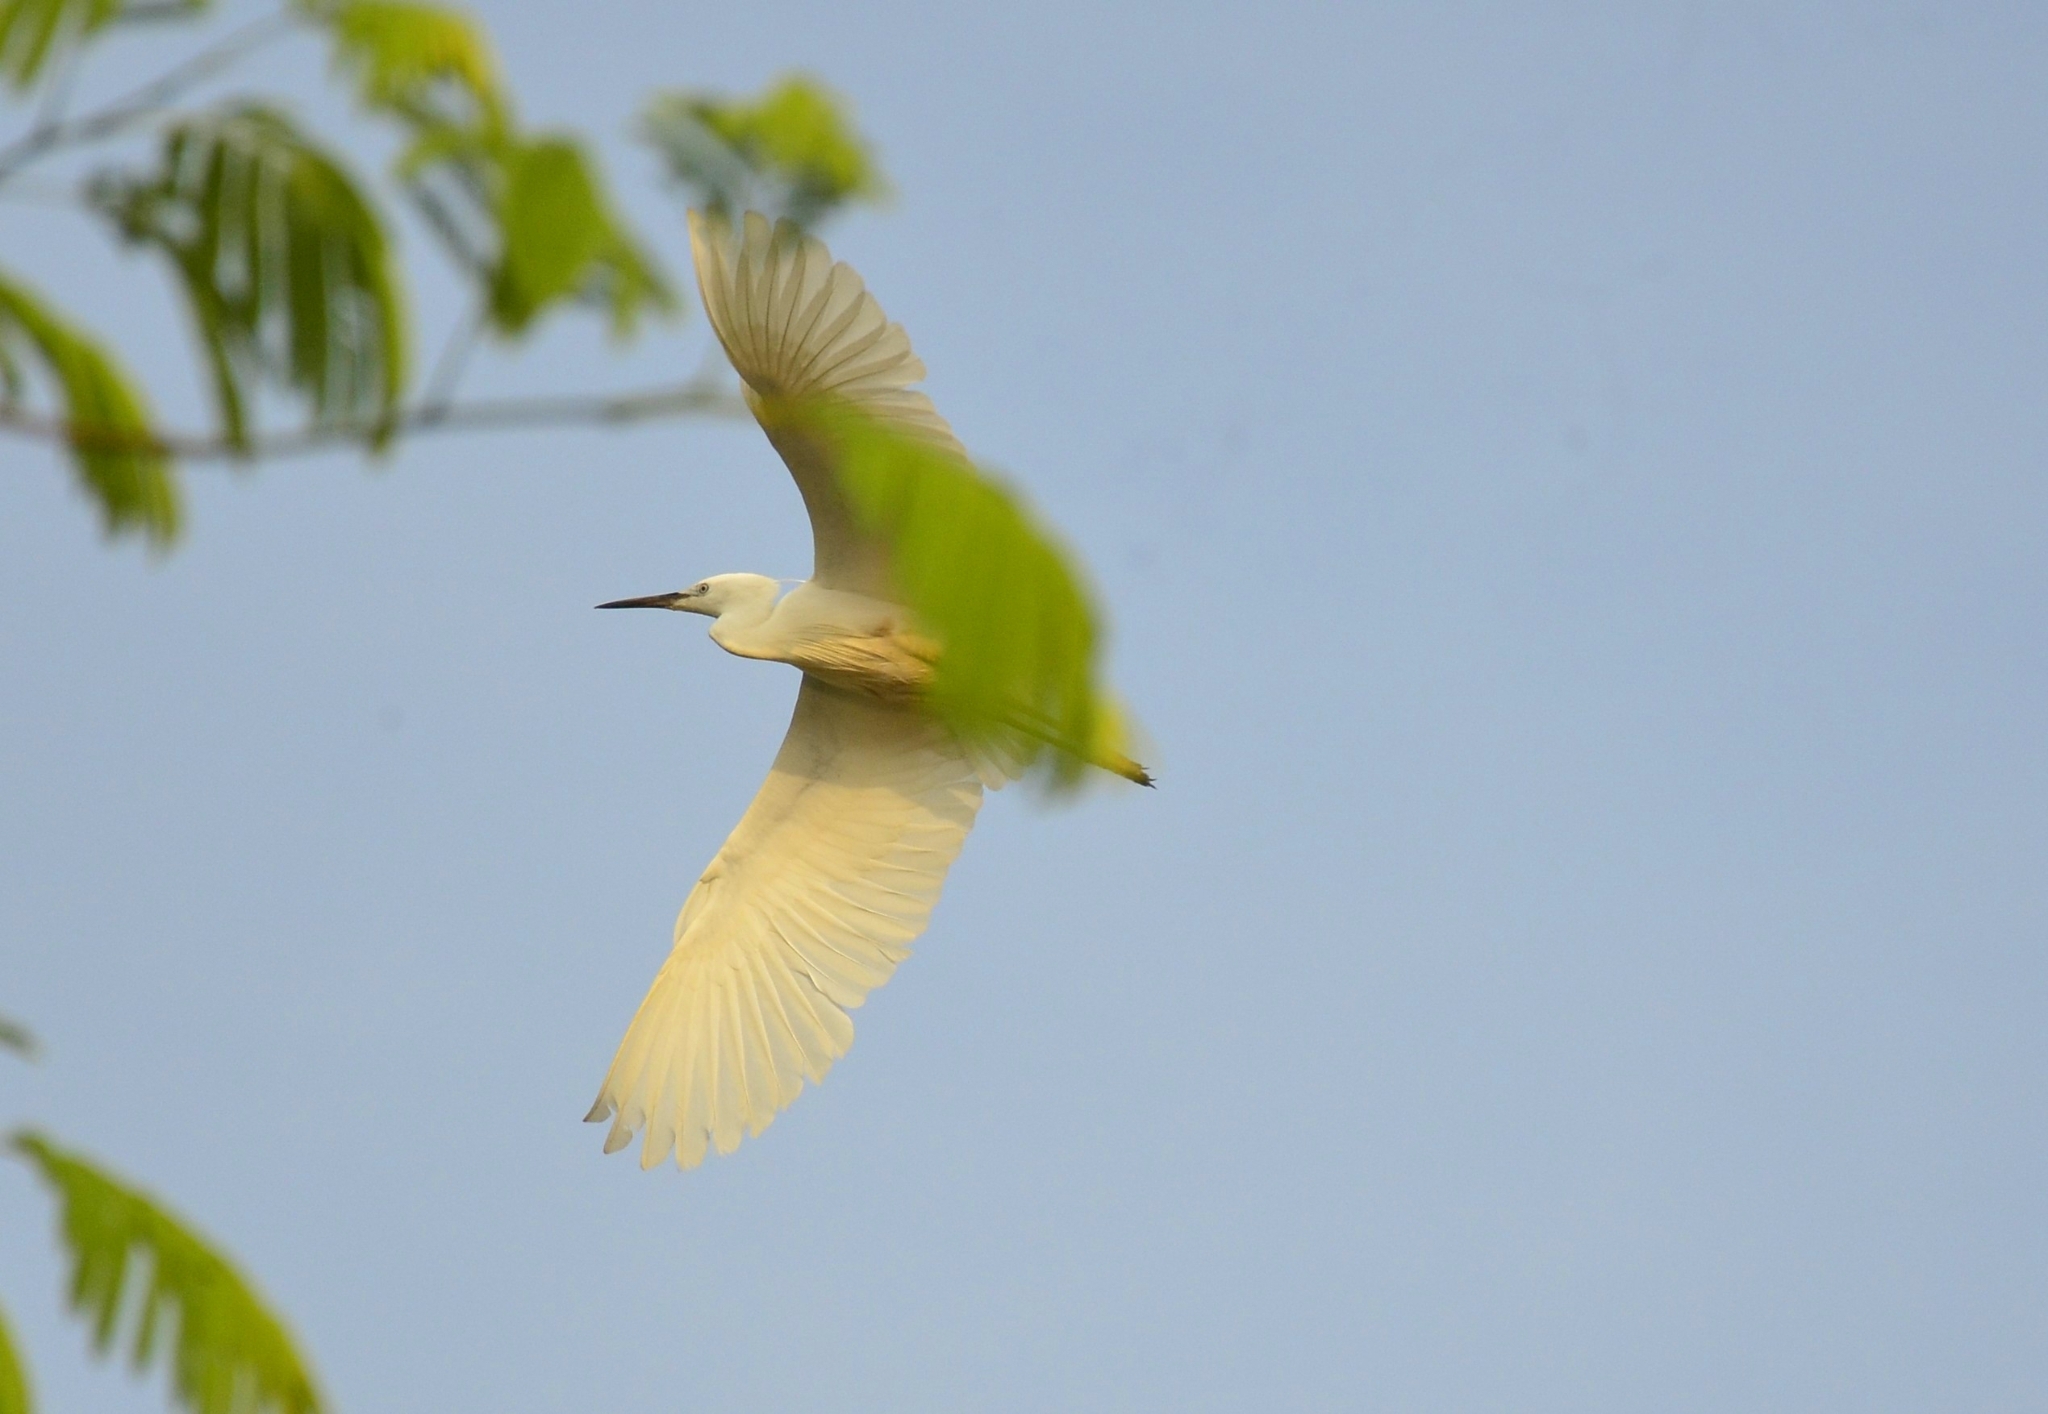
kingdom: Animalia
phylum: Chordata
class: Aves
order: Pelecaniformes
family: Ardeidae
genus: Egretta
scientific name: Egretta garzetta
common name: Little egret
